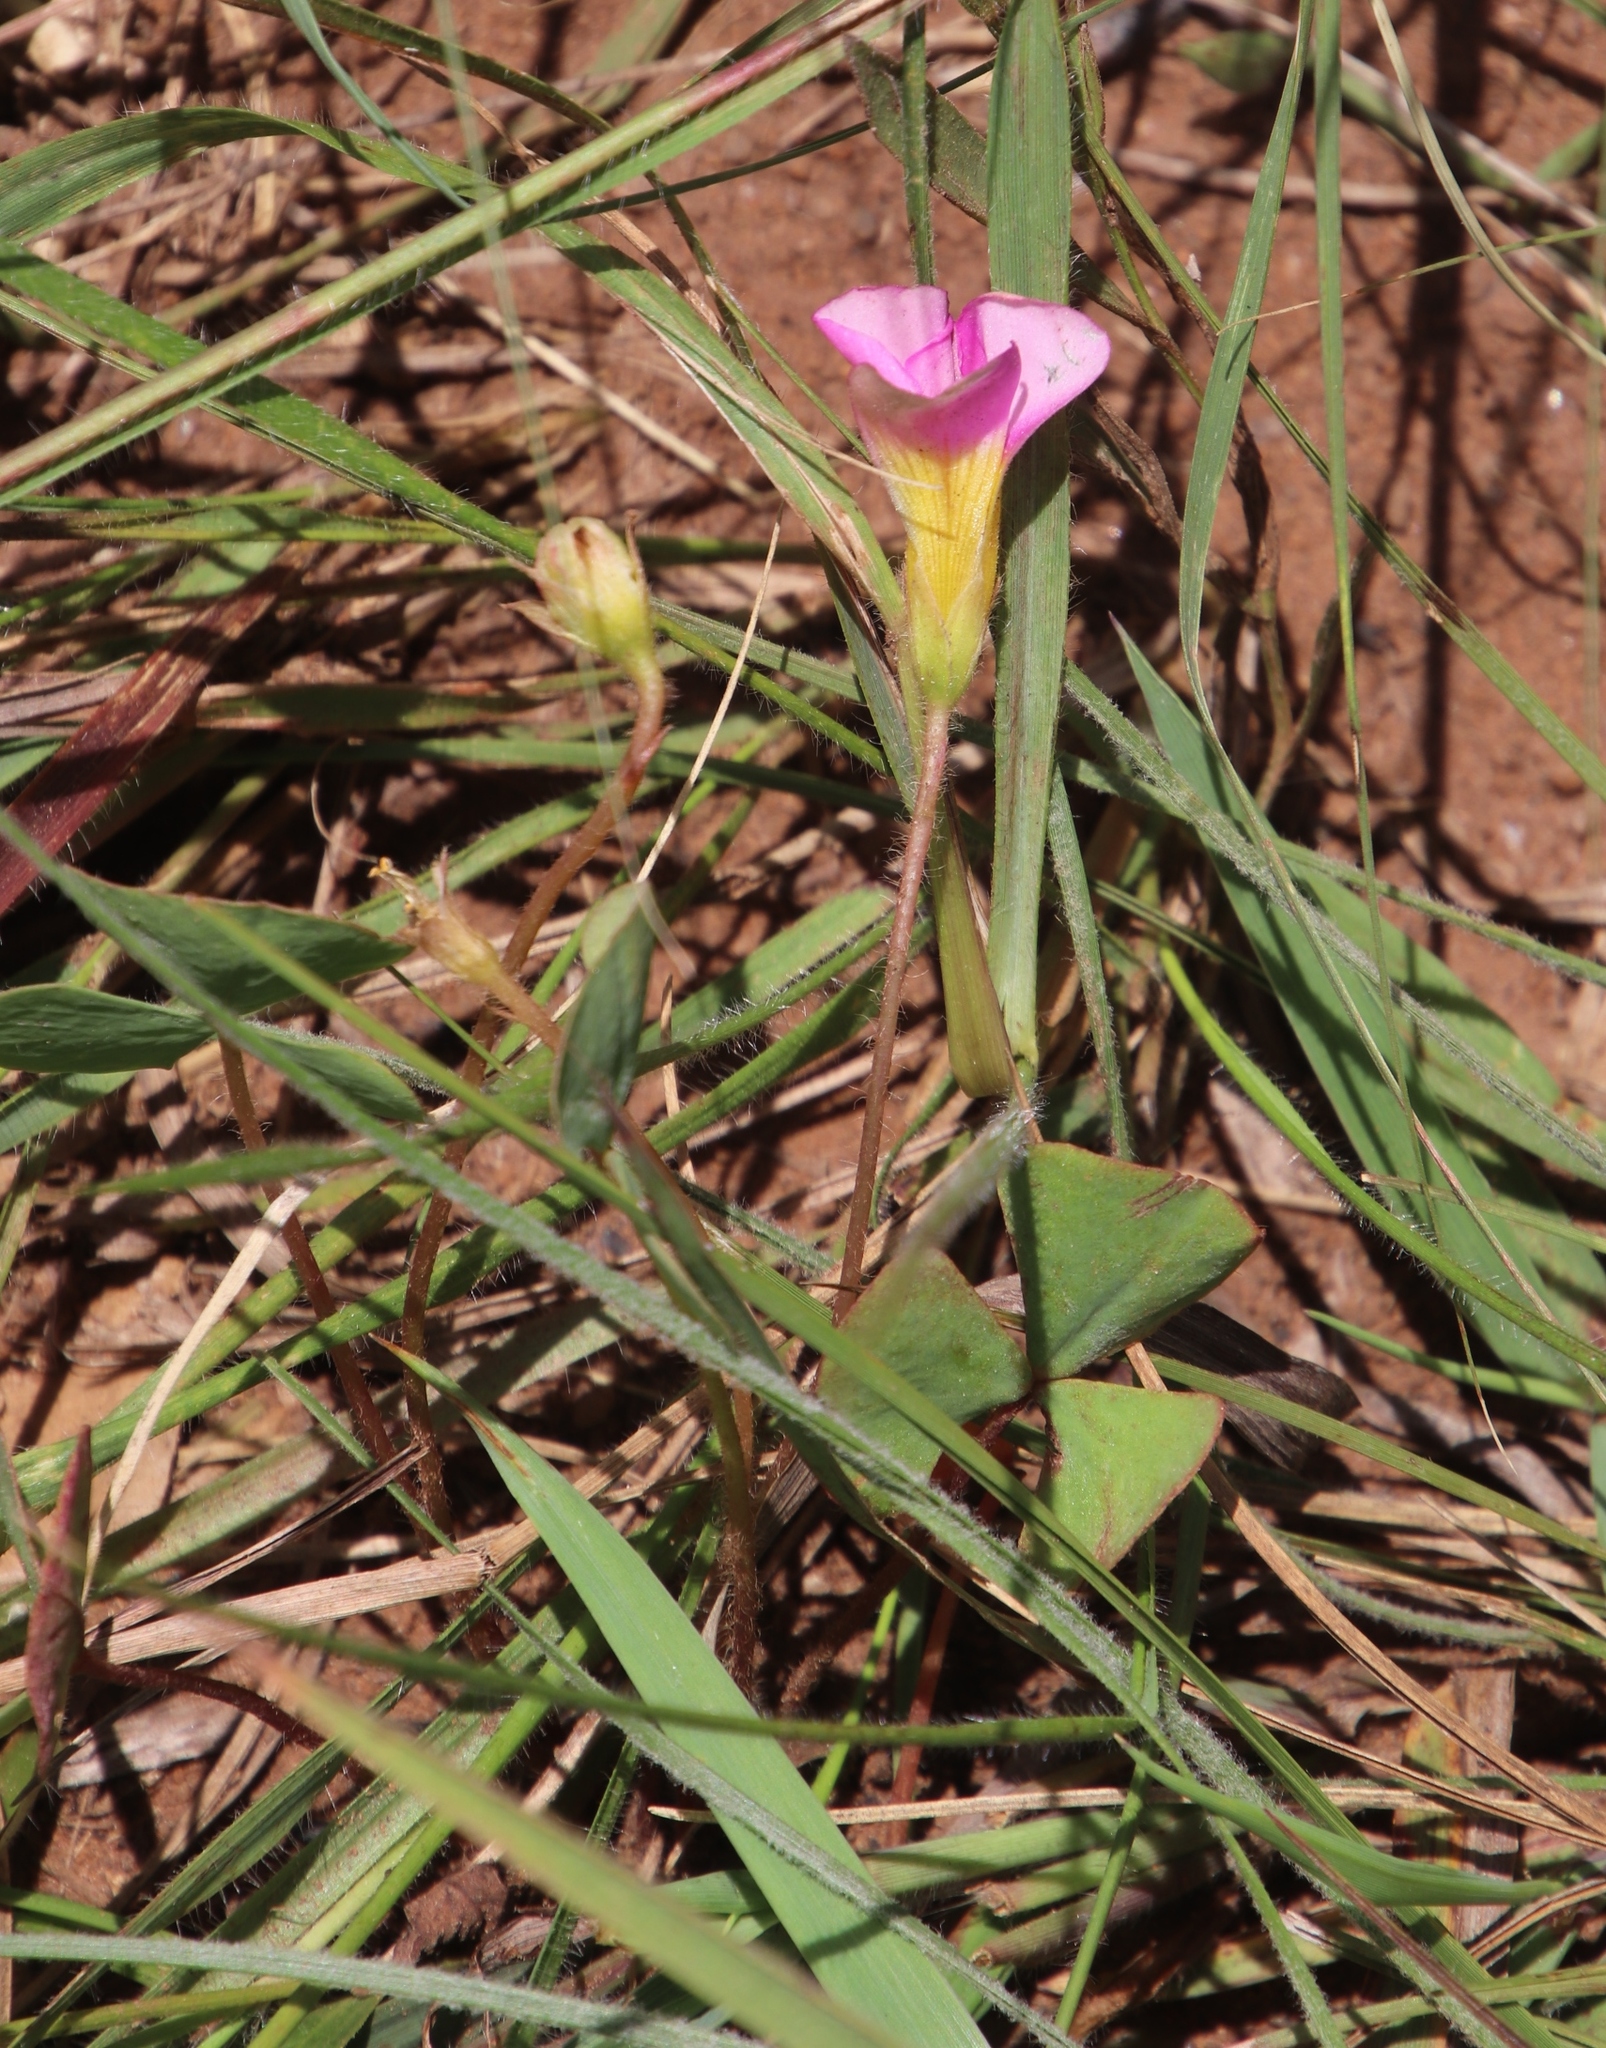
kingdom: Plantae
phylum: Tracheophyta
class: Magnoliopsida
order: Oxalidales
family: Oxalidaceae
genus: Oxalis
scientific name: Oxalis obliquifolia
